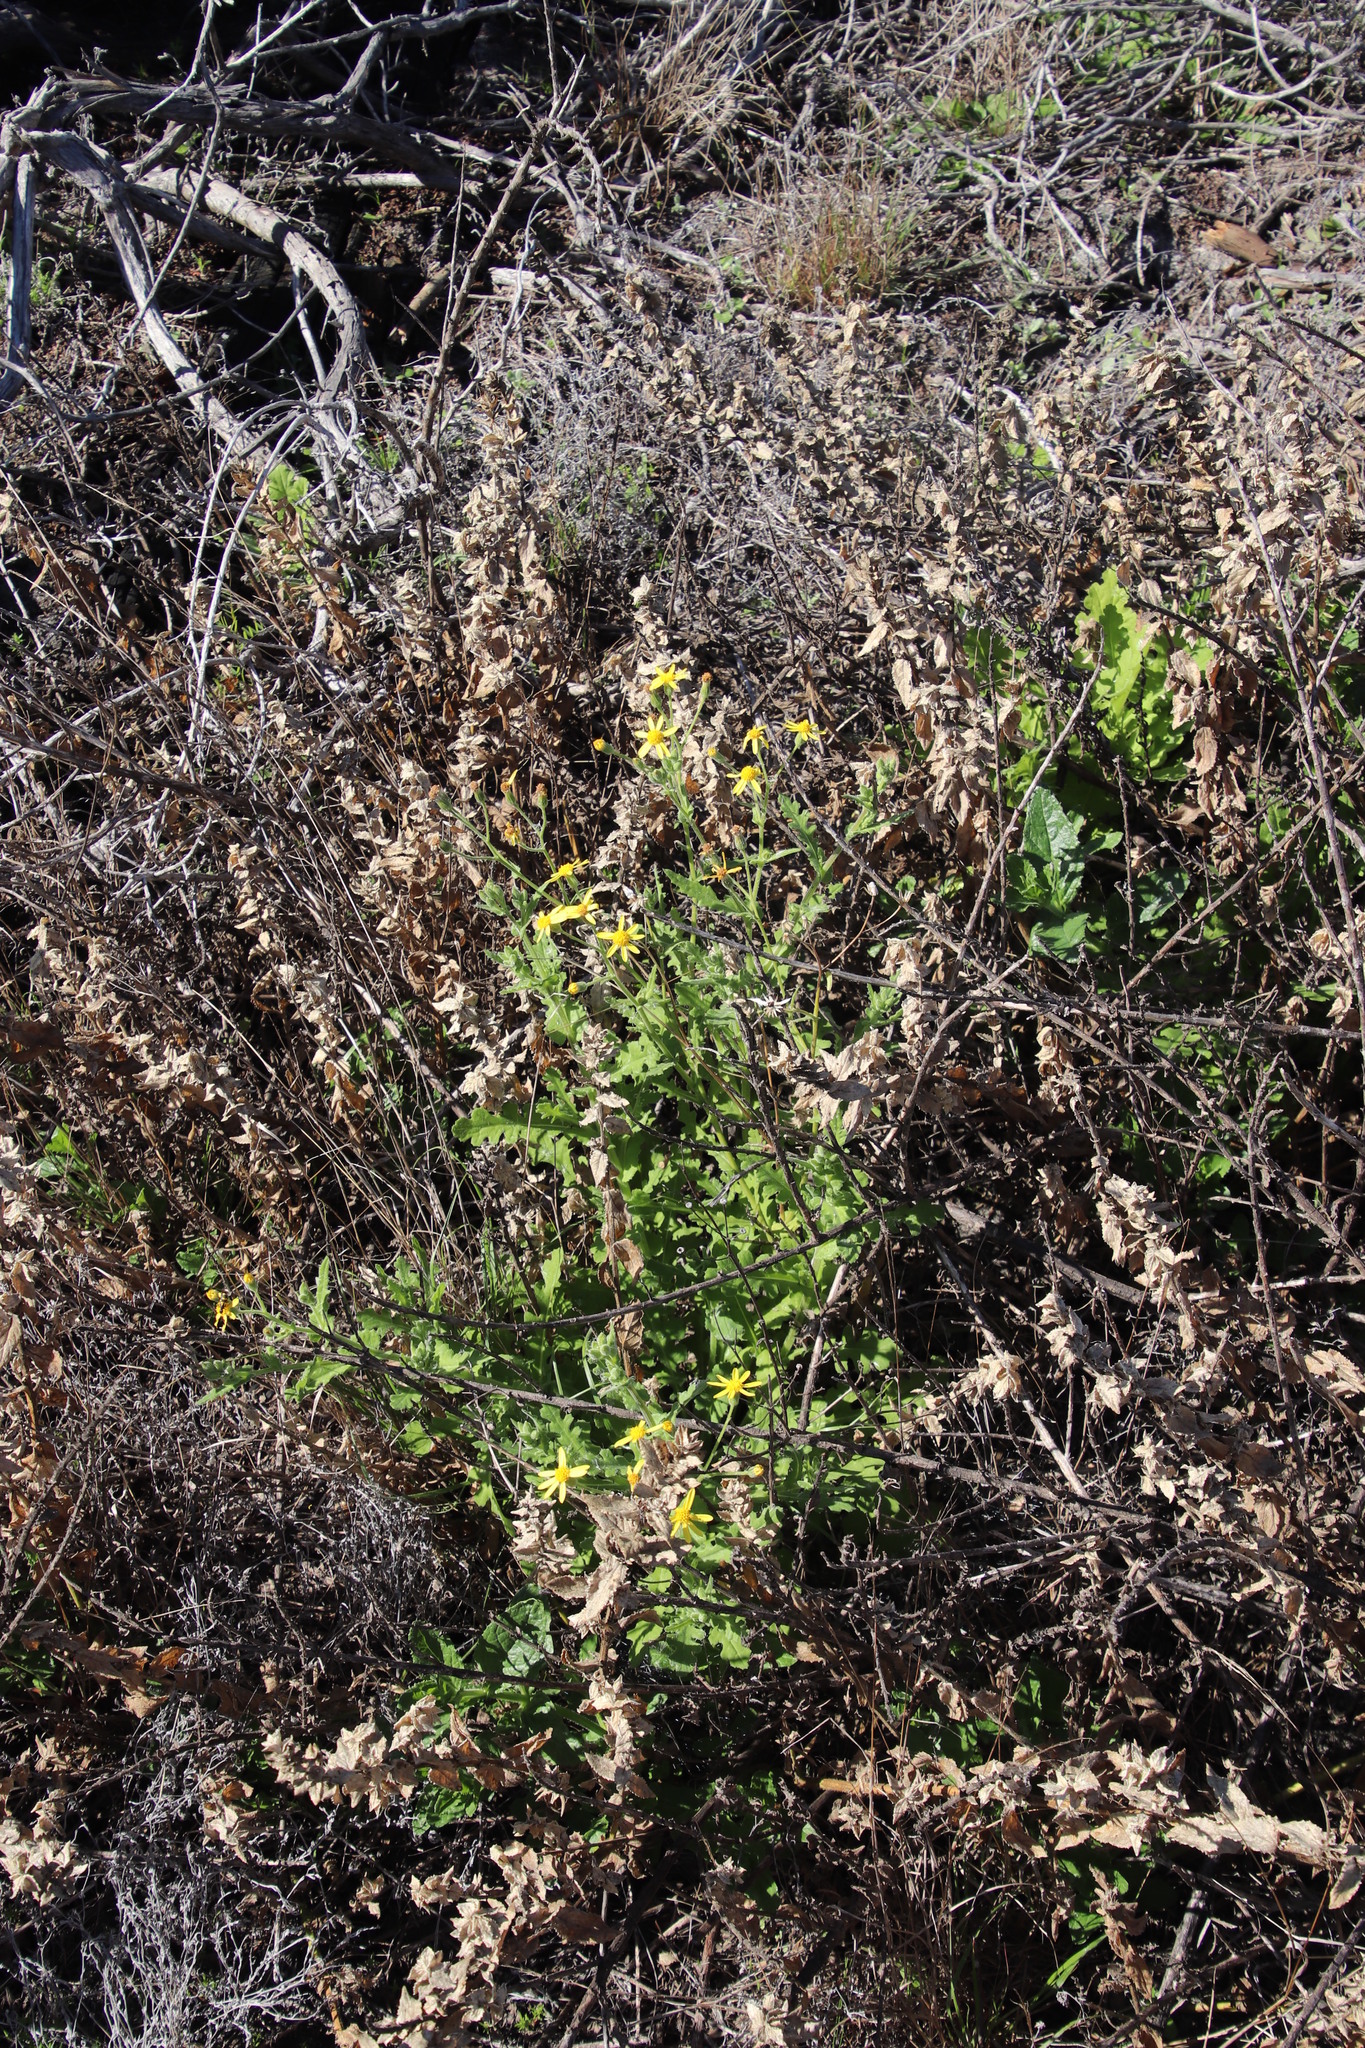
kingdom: Plantae
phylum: Tracheophyta
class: Magnoliopsida
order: Asterales
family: Asteraceae
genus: Senecio
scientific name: Senecio hastatus
